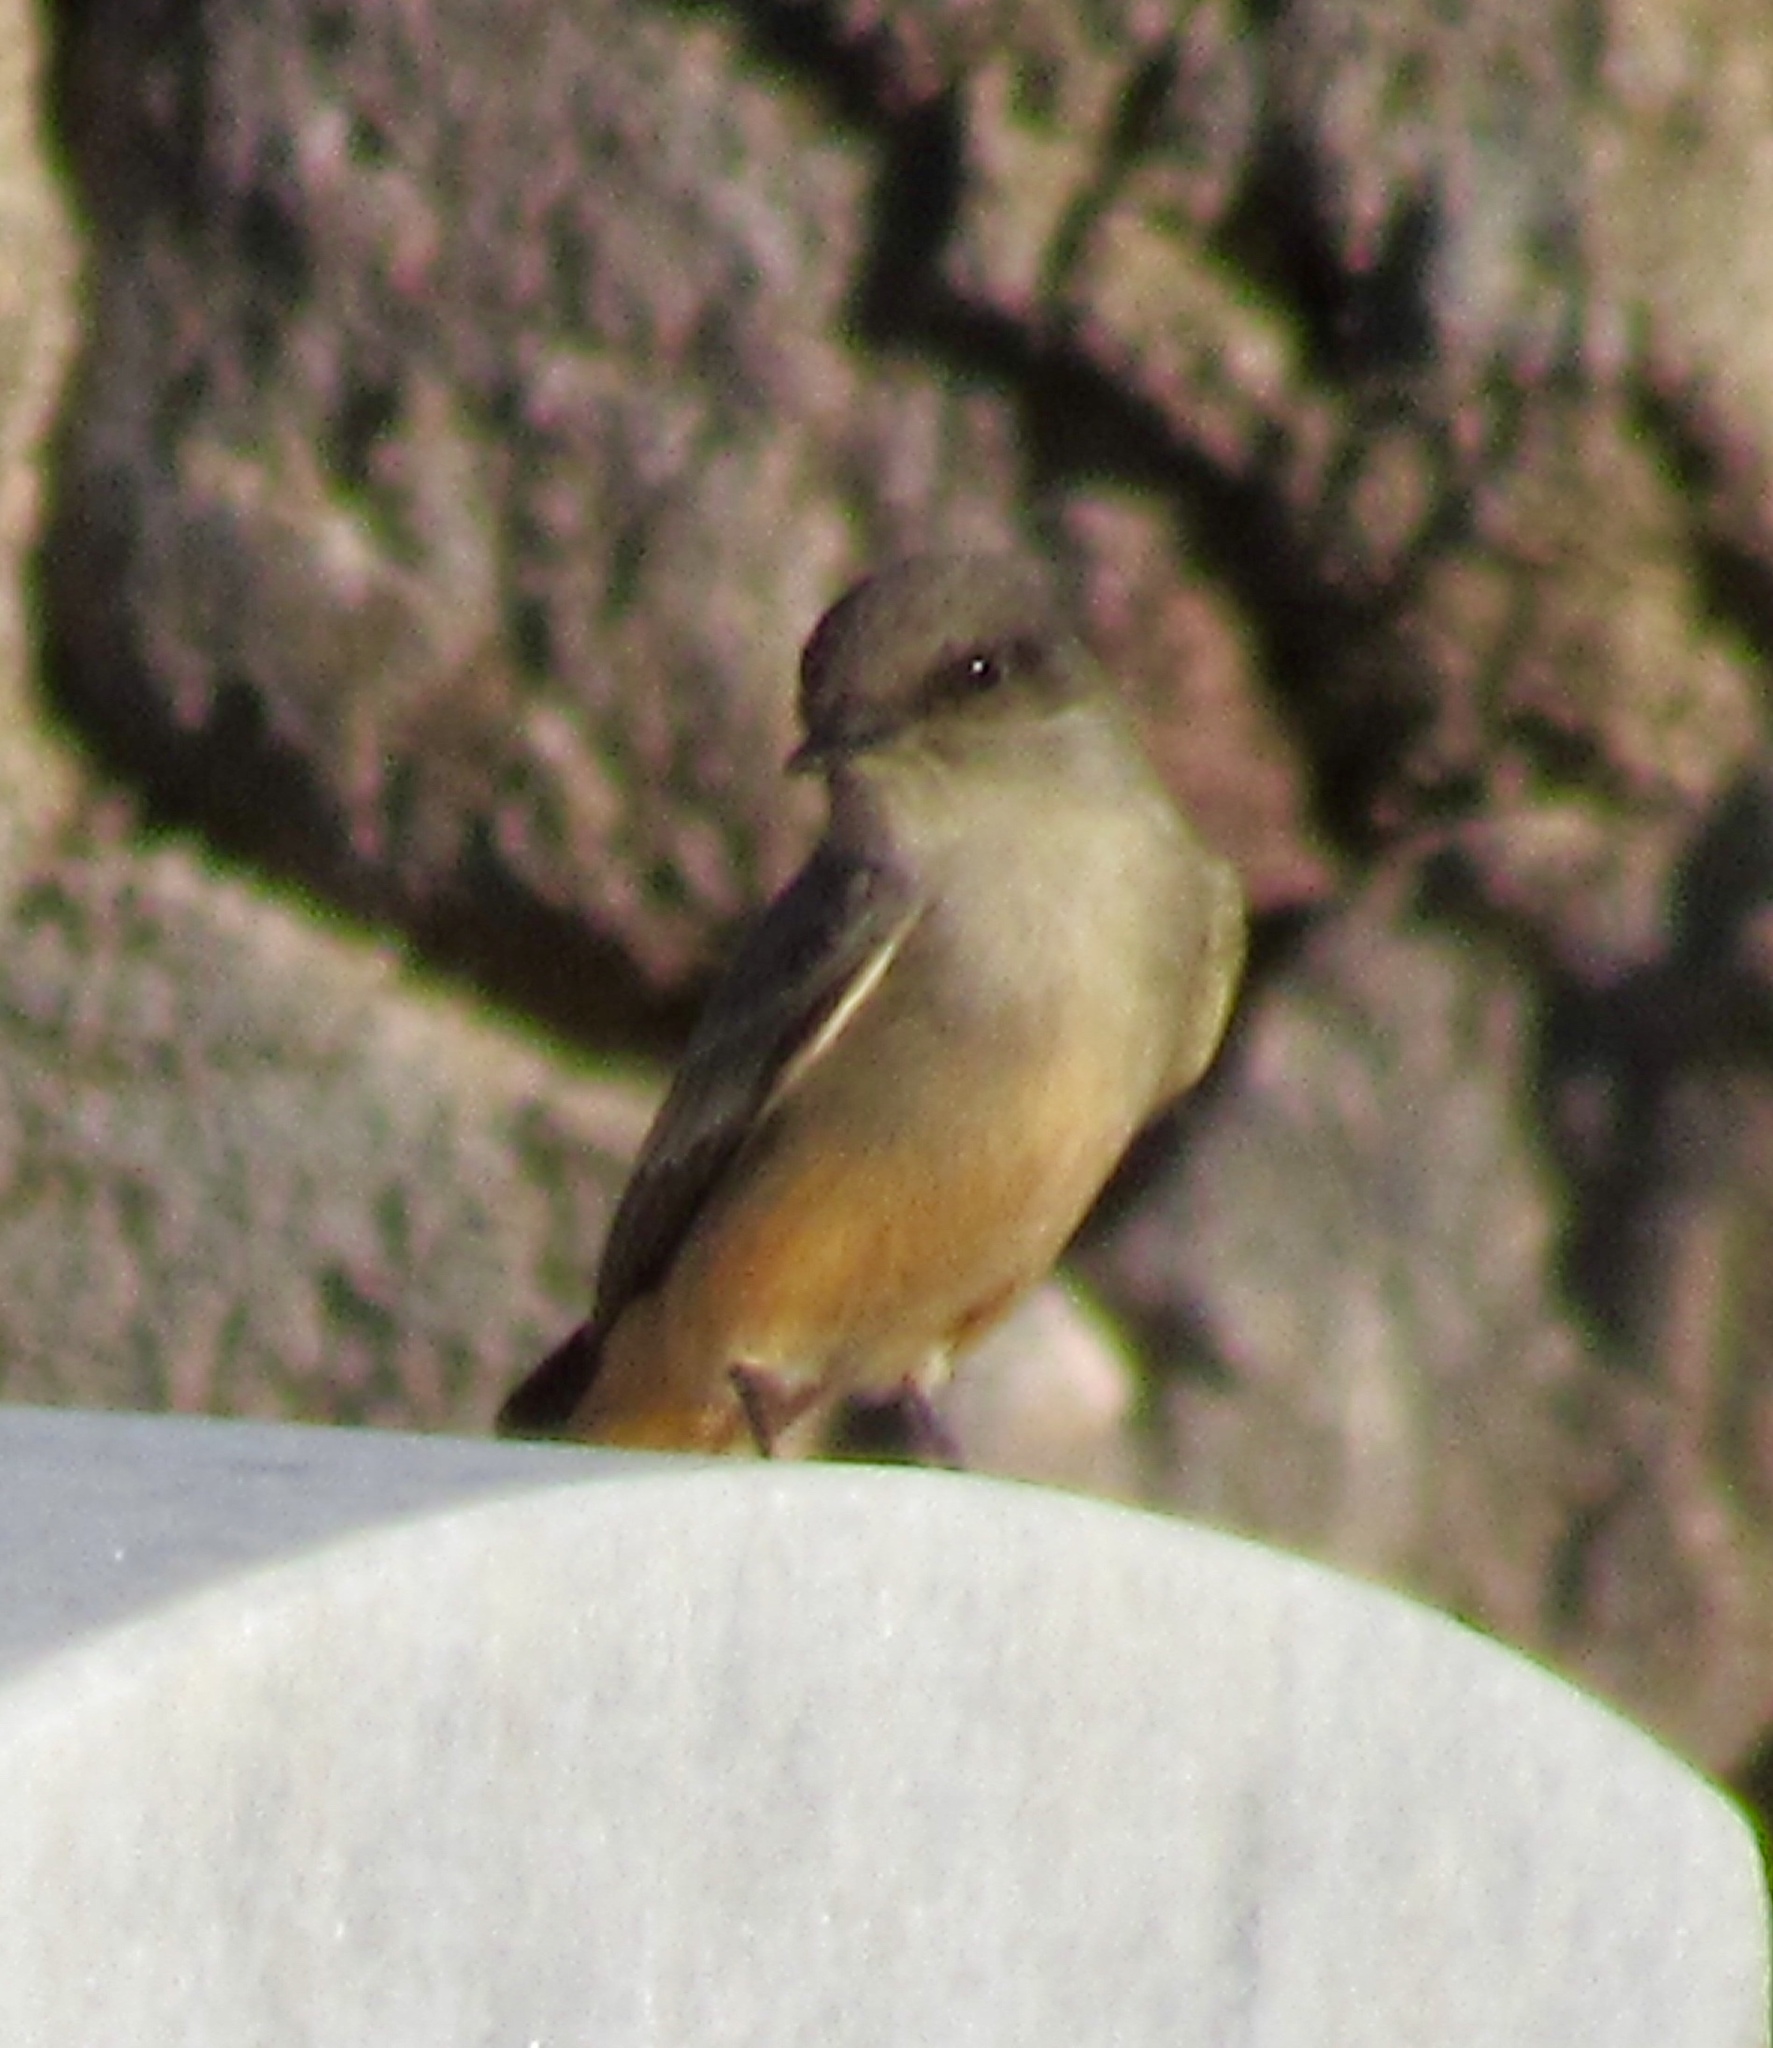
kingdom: Animalia
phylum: Chordata
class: Aves
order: Passeriformes
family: Tyrannidae
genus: Sayornis
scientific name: Sayornis saya
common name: Say's phoebe
